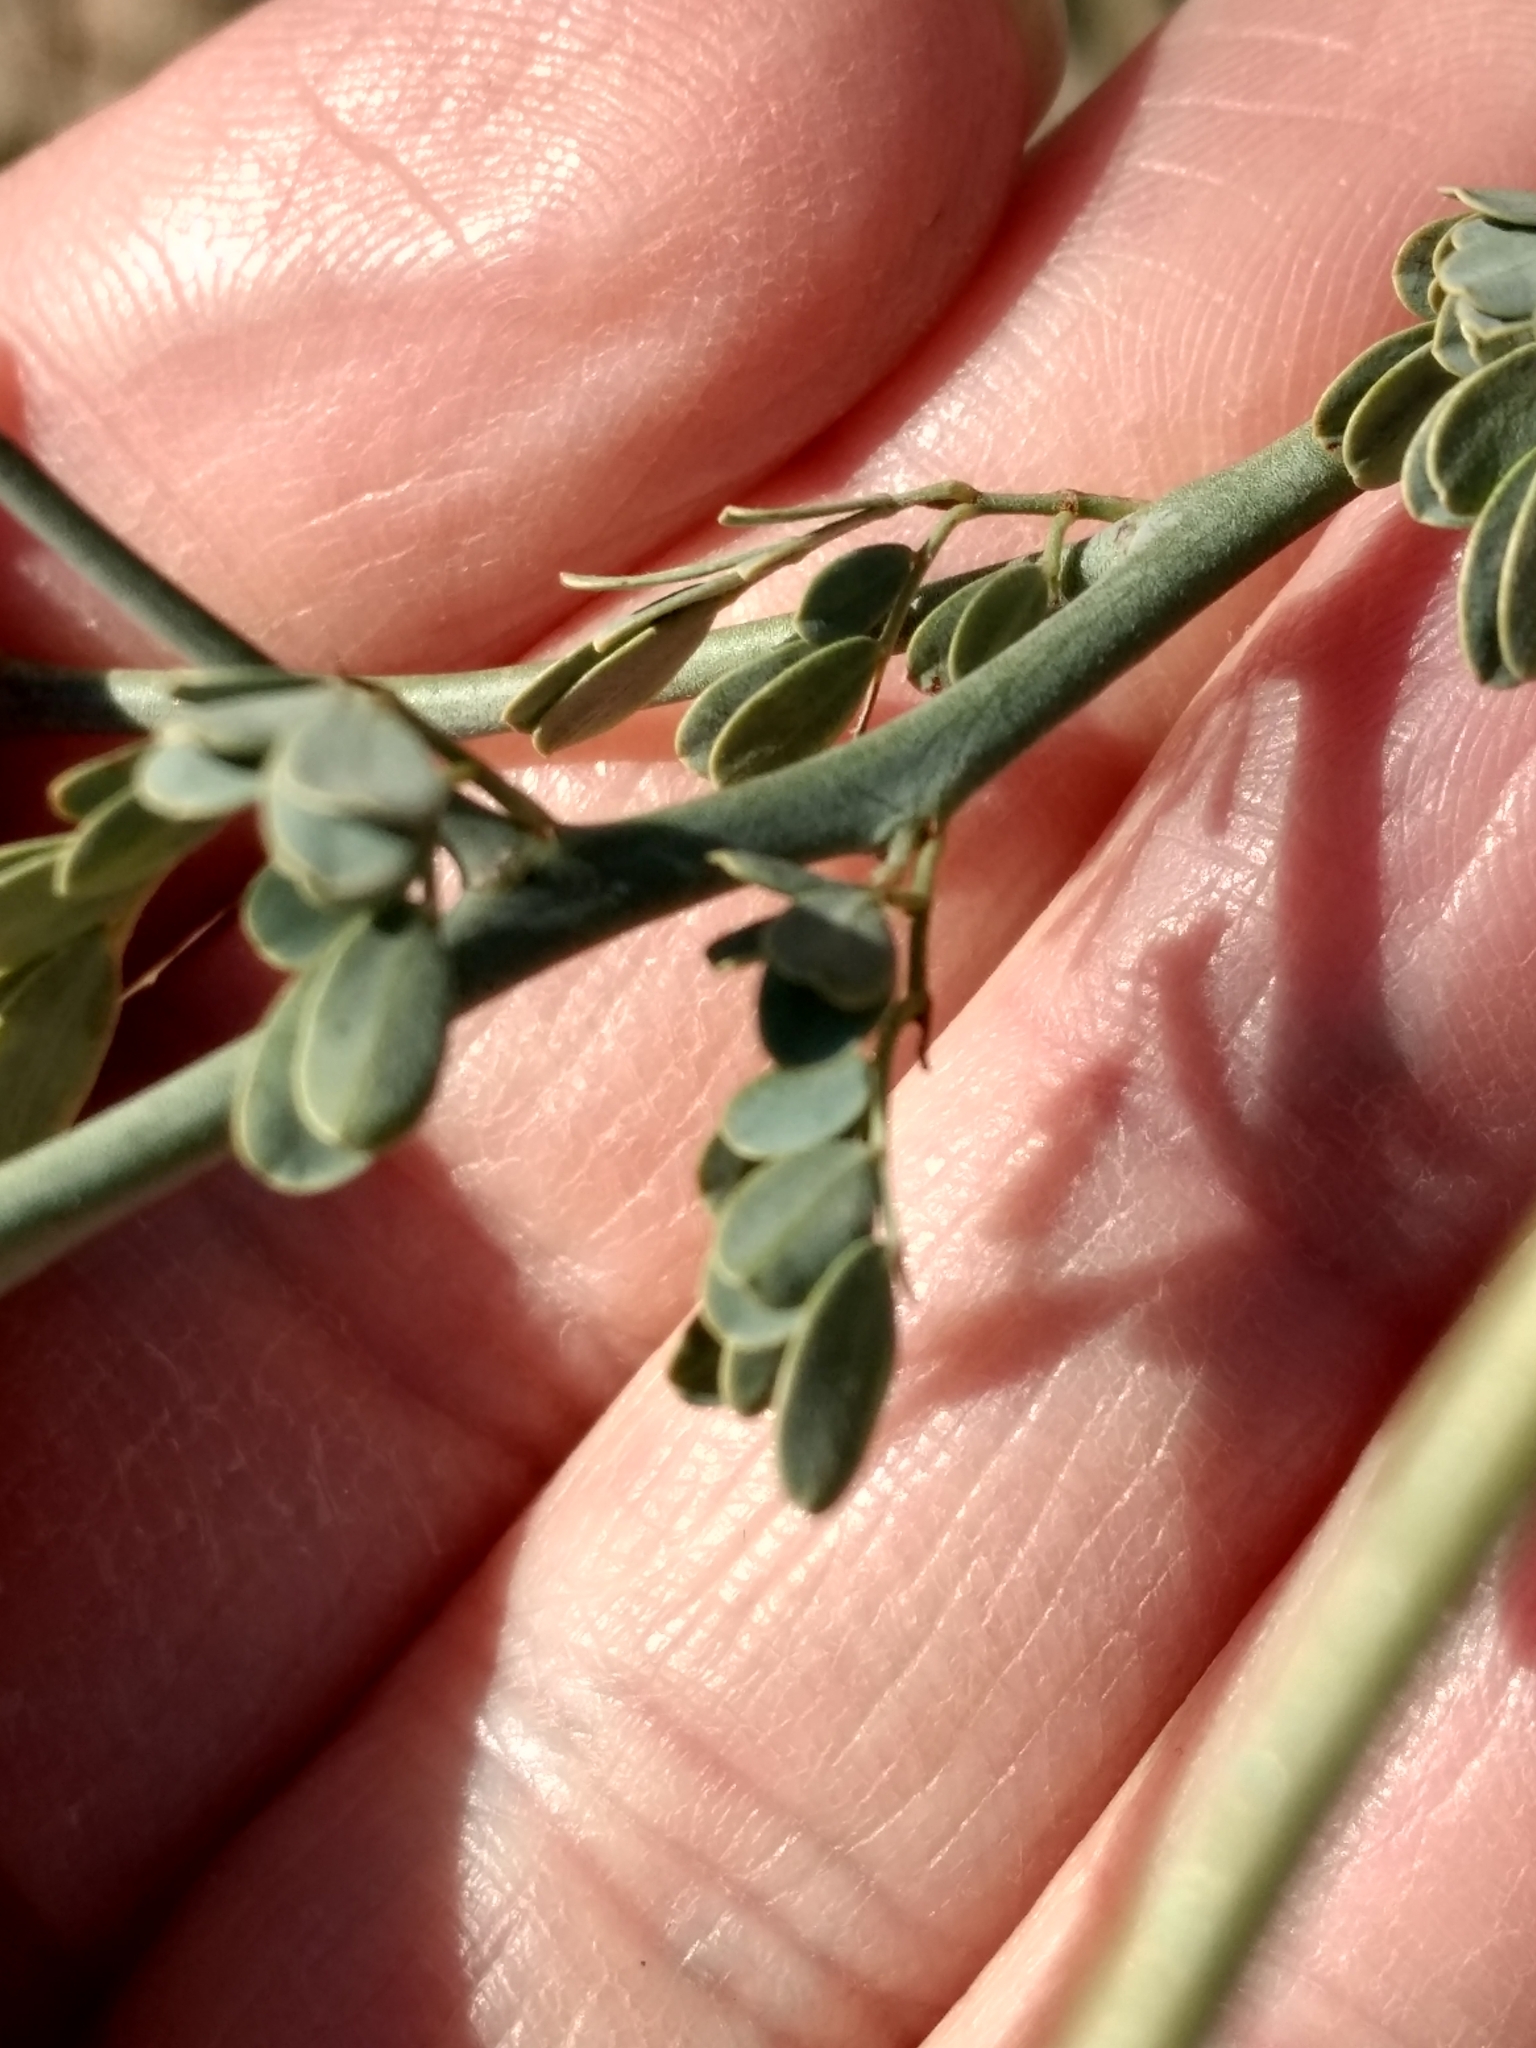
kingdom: Plantae
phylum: Tracheophyta
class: Magnoliopsida
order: Fabales
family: Fabaceae
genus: Parkinsonia
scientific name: Parkinsonia florida
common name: Blue paloverde
